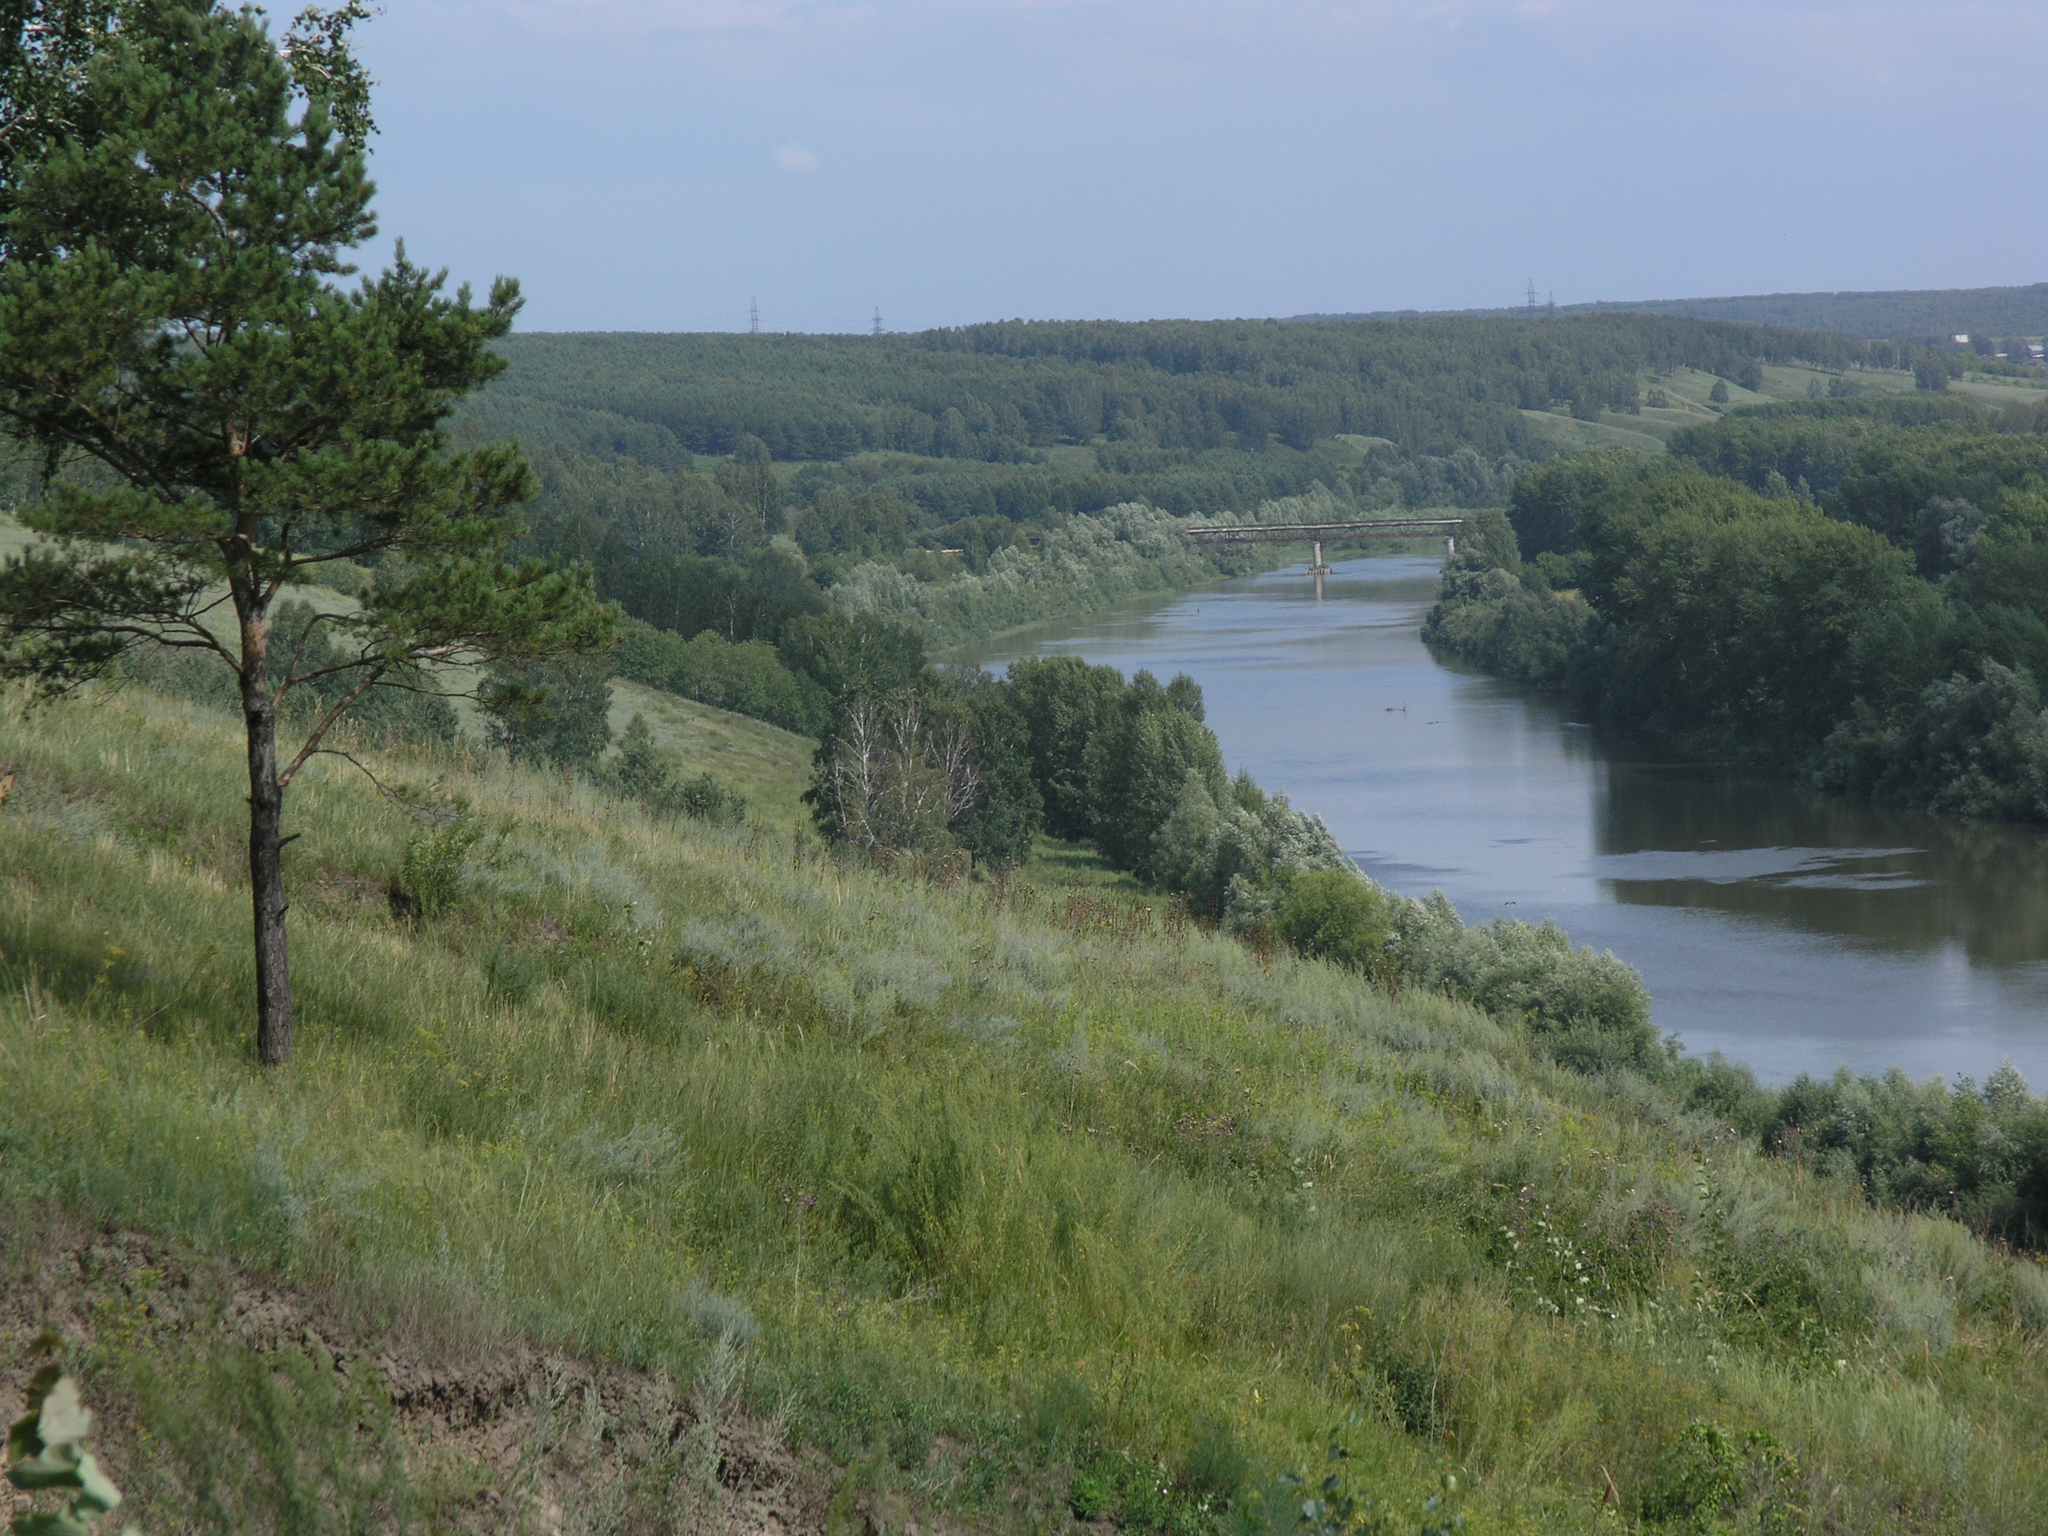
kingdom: Plantae
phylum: Tracheophyta
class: Pinopsida
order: Pinales
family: Pinaceae
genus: Pinus
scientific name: Pinus sylvestris
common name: Scots pine
